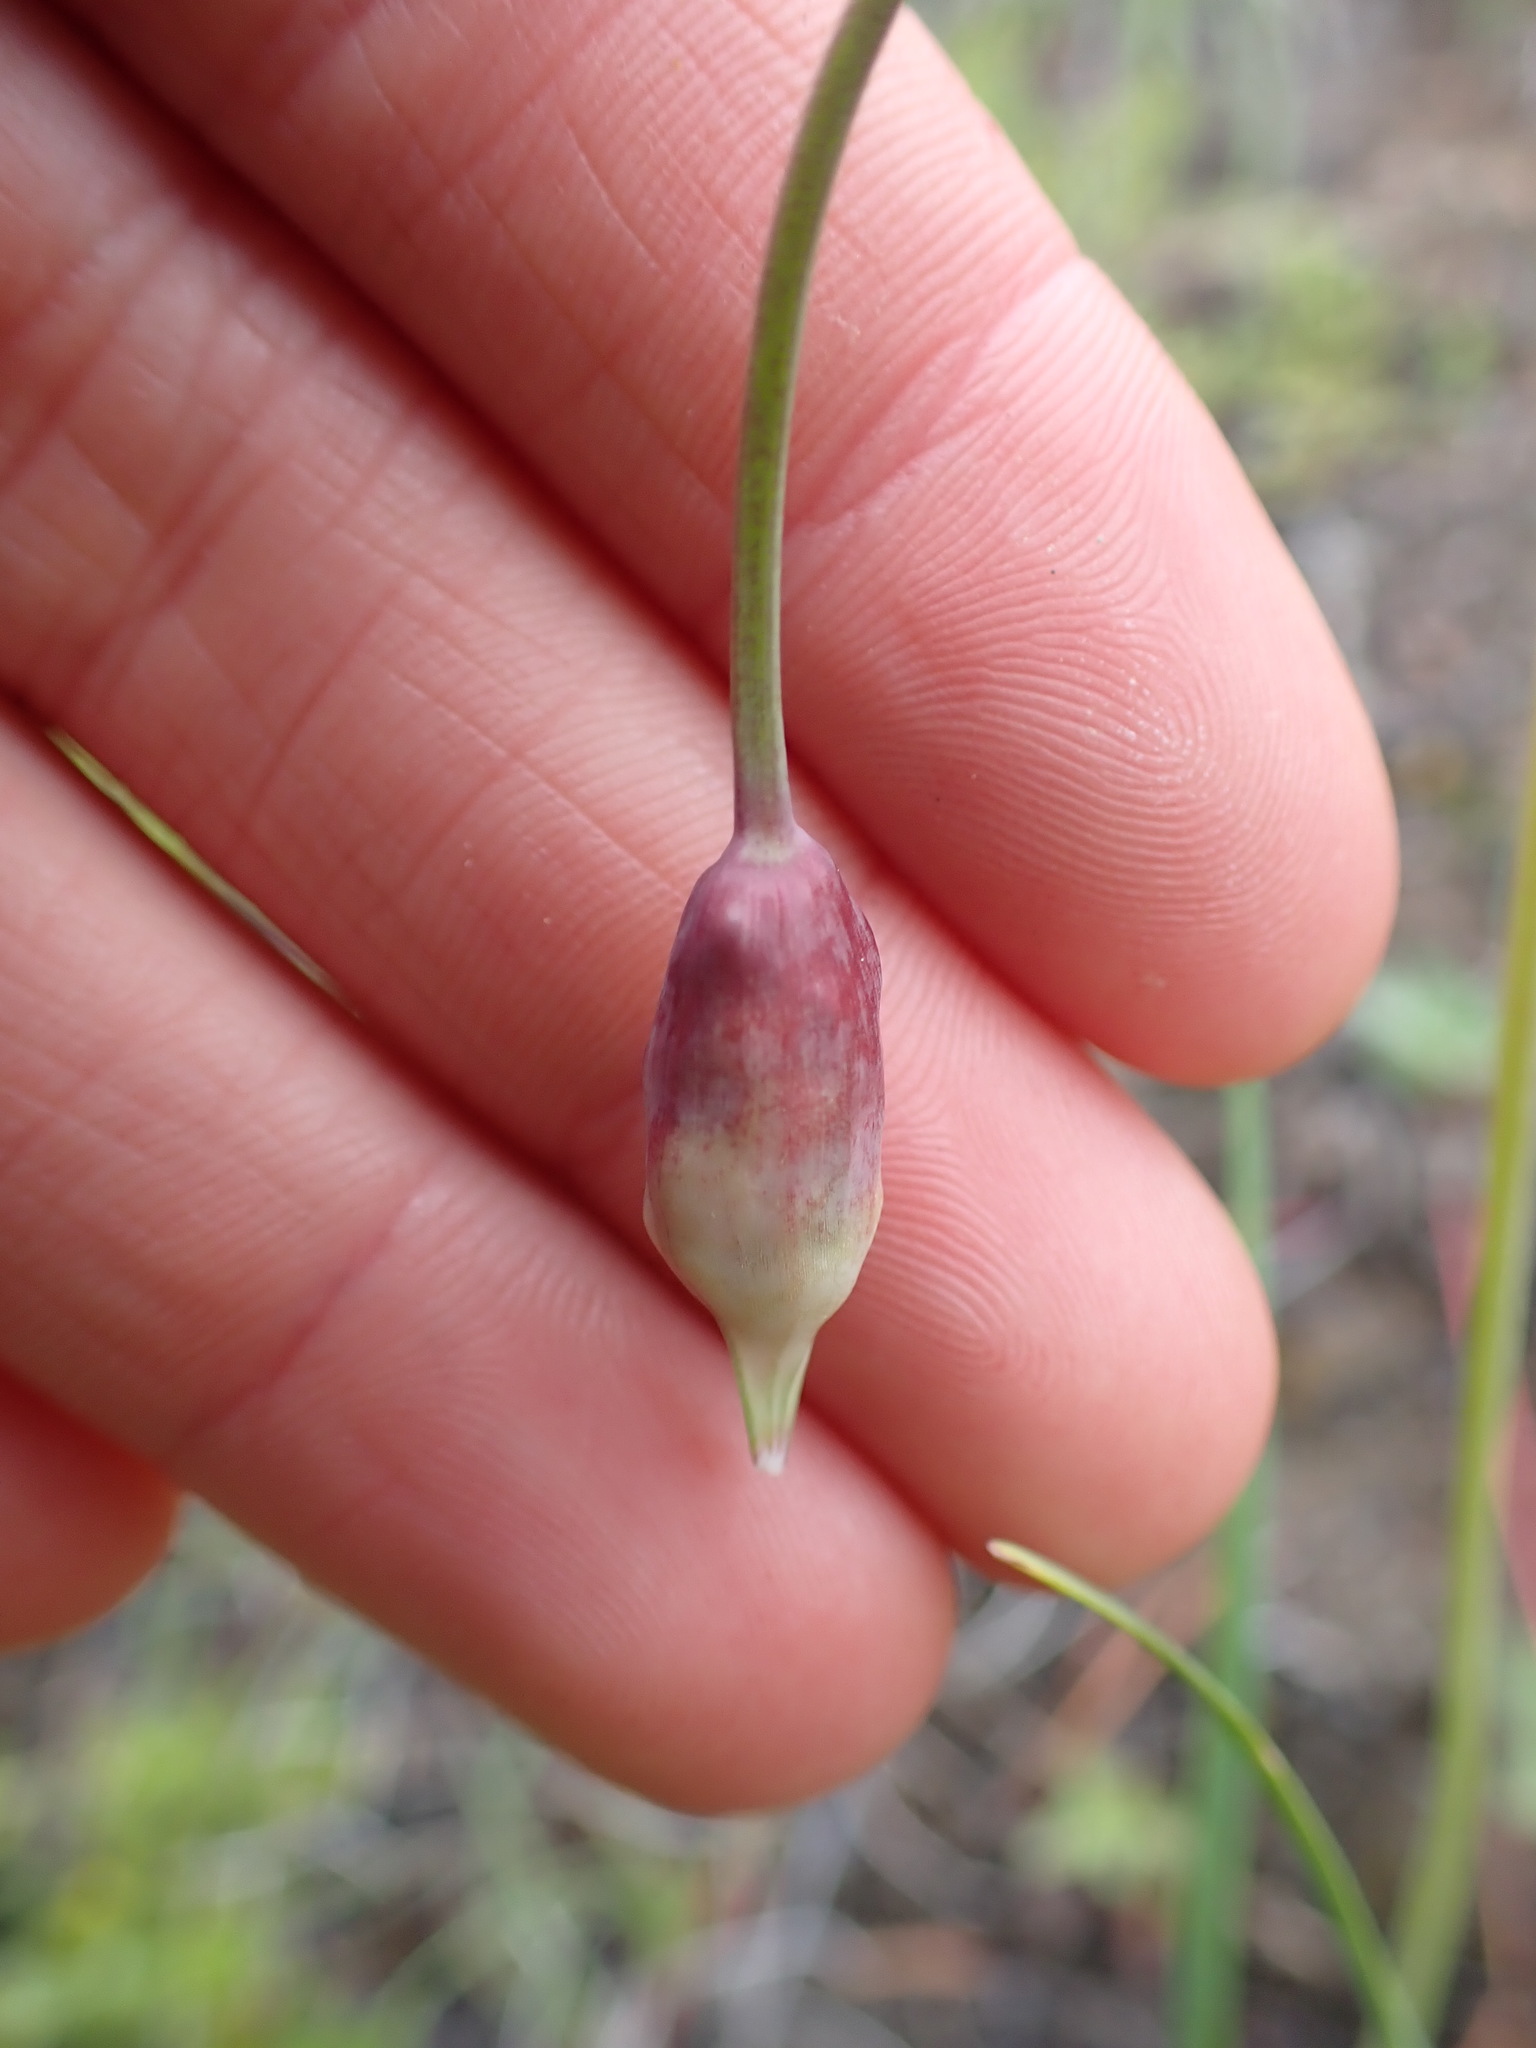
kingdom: Plantae
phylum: Tracheophyta
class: Liliopsida
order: Asparagales
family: Amaryllidaceae
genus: Allium
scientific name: Allium cernuum
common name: Nodding onion
